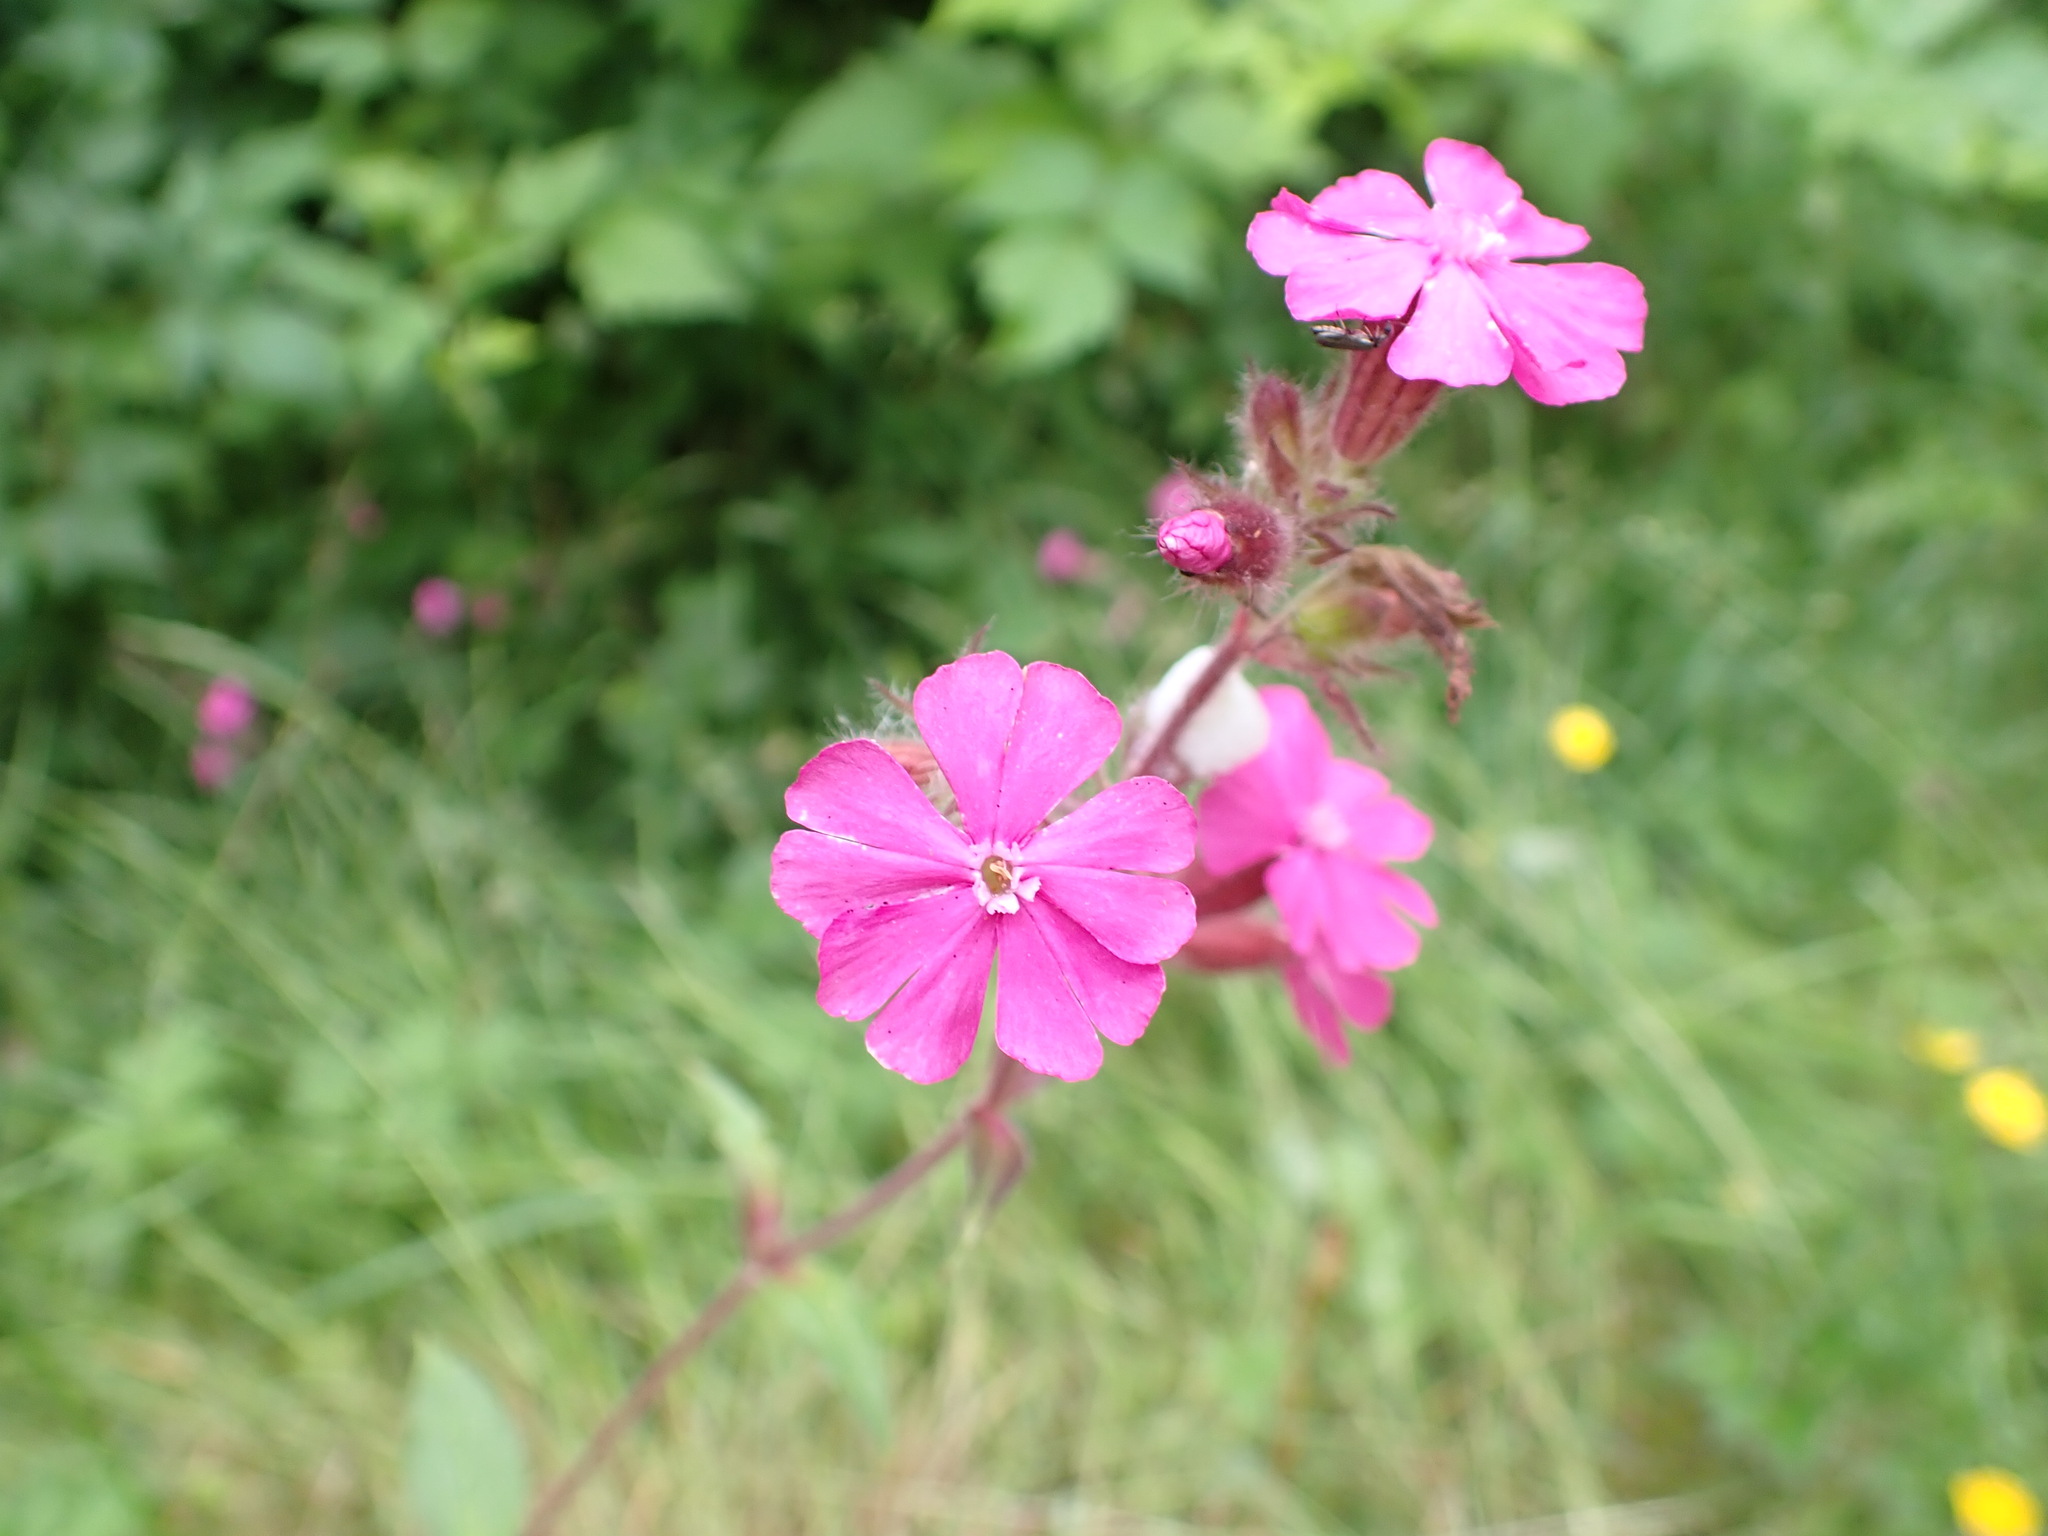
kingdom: Plantae
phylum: Tracheophyta
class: Magnoliopsida
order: Caryophyllales
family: Caryophyllaceae
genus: Silene
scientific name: Silene dioica
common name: Red campion
